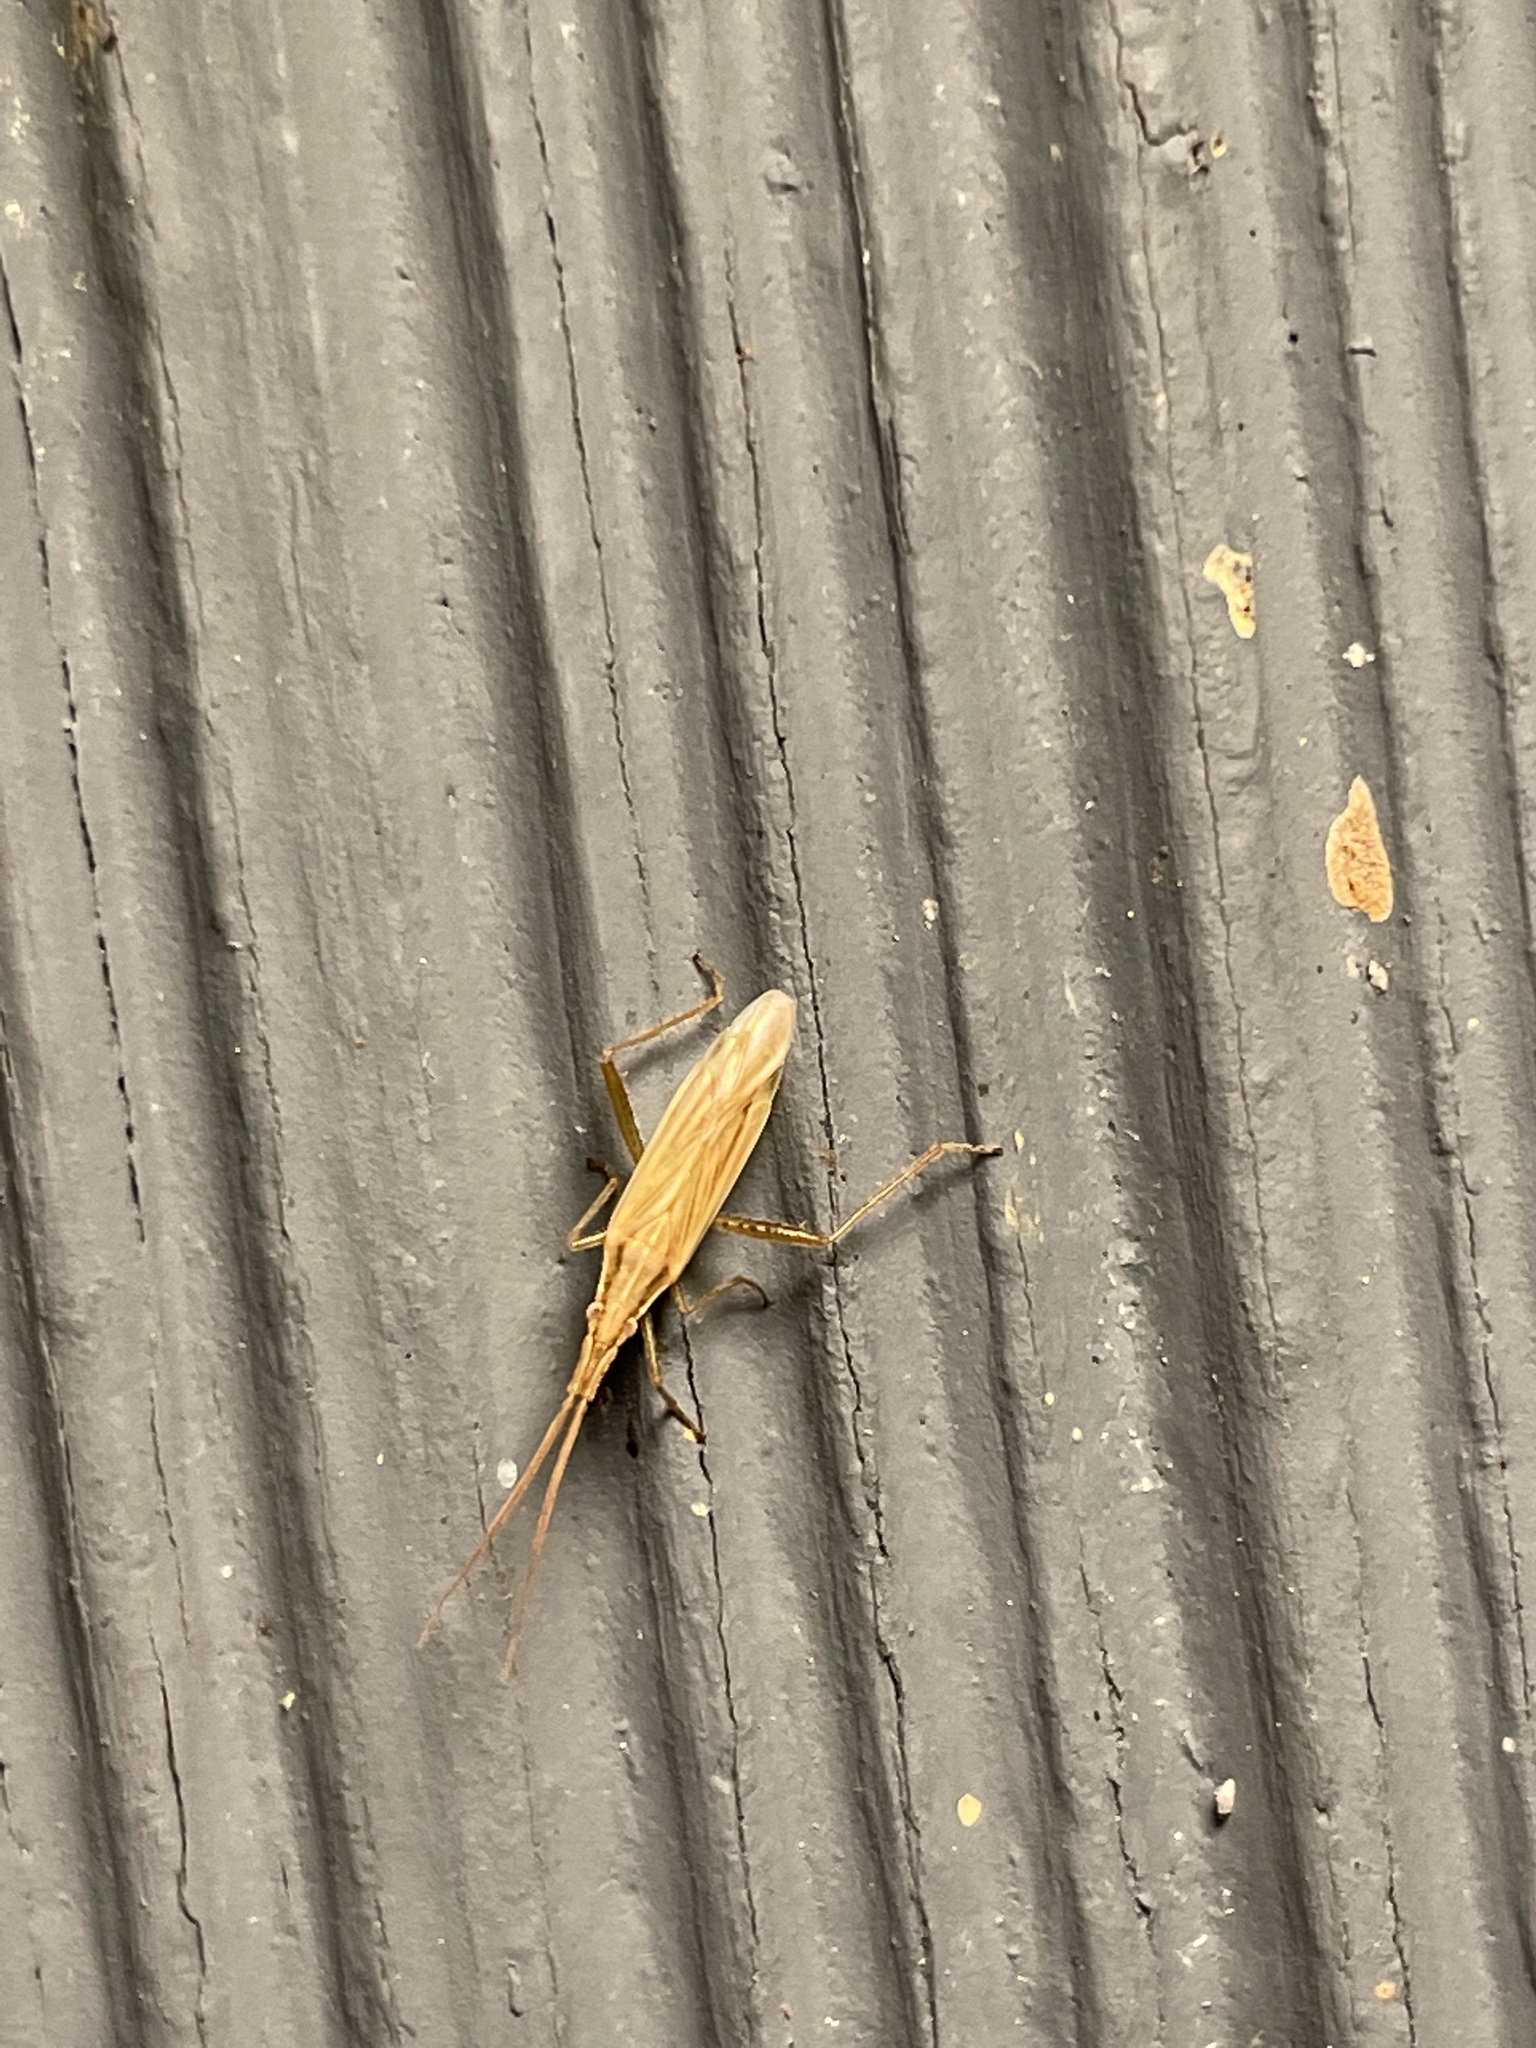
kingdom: Animalia
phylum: Arthropoda
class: Insecta
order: Hemiptera
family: Miridae
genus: Stenodema
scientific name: Stenodema trispinosa
